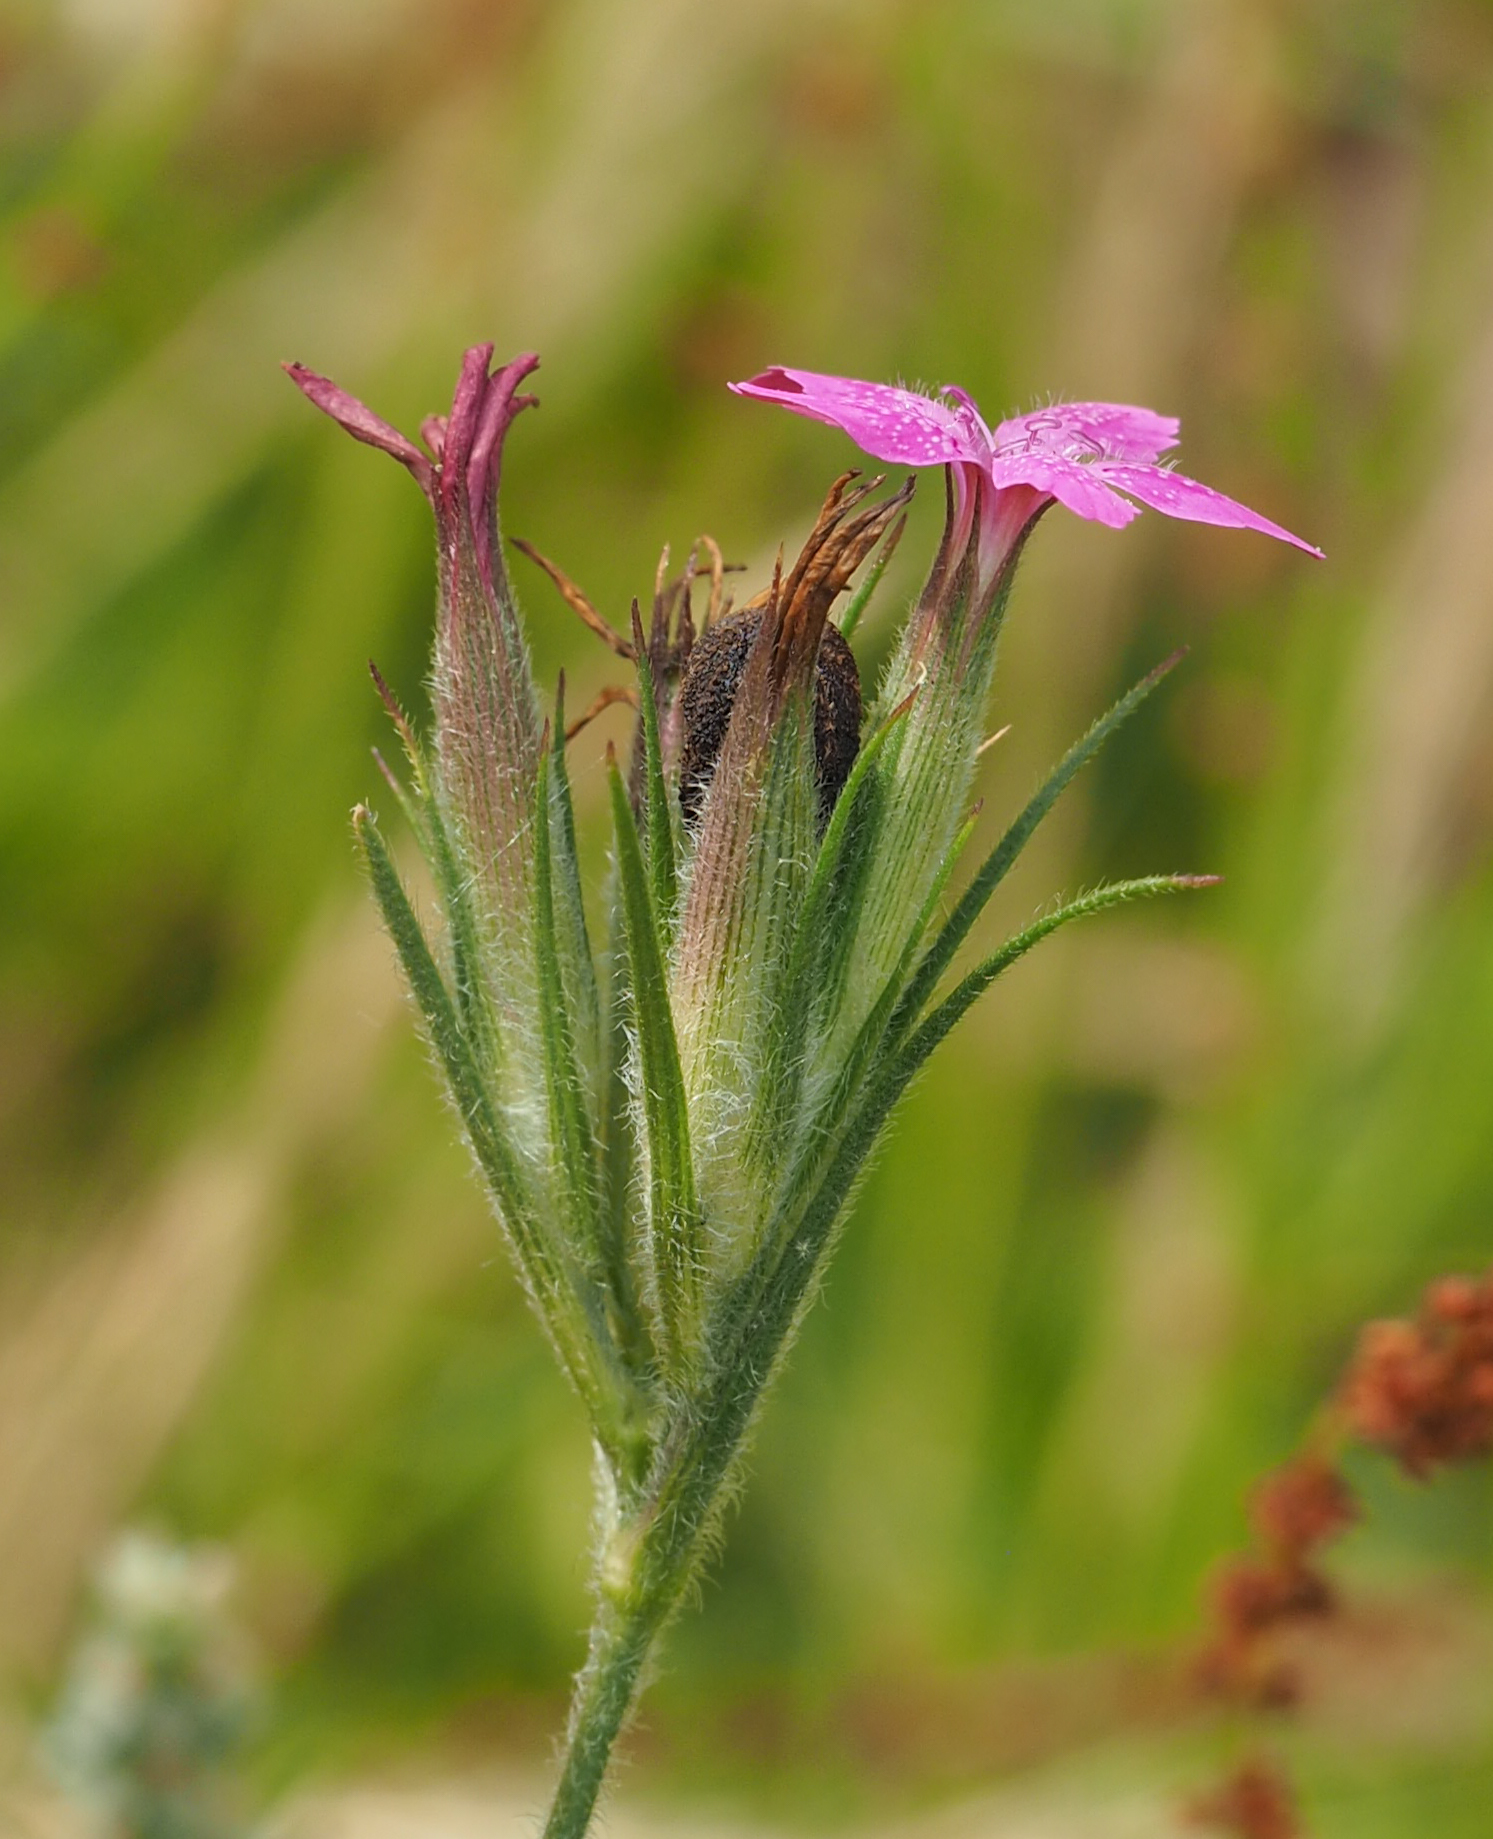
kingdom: Plantae
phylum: Tracheophyta
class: Magnoliopsida
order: Caryophyllales
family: Caryophyllaceae
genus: Dianthus
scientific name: Dianthus armeria
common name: Deptford pink
